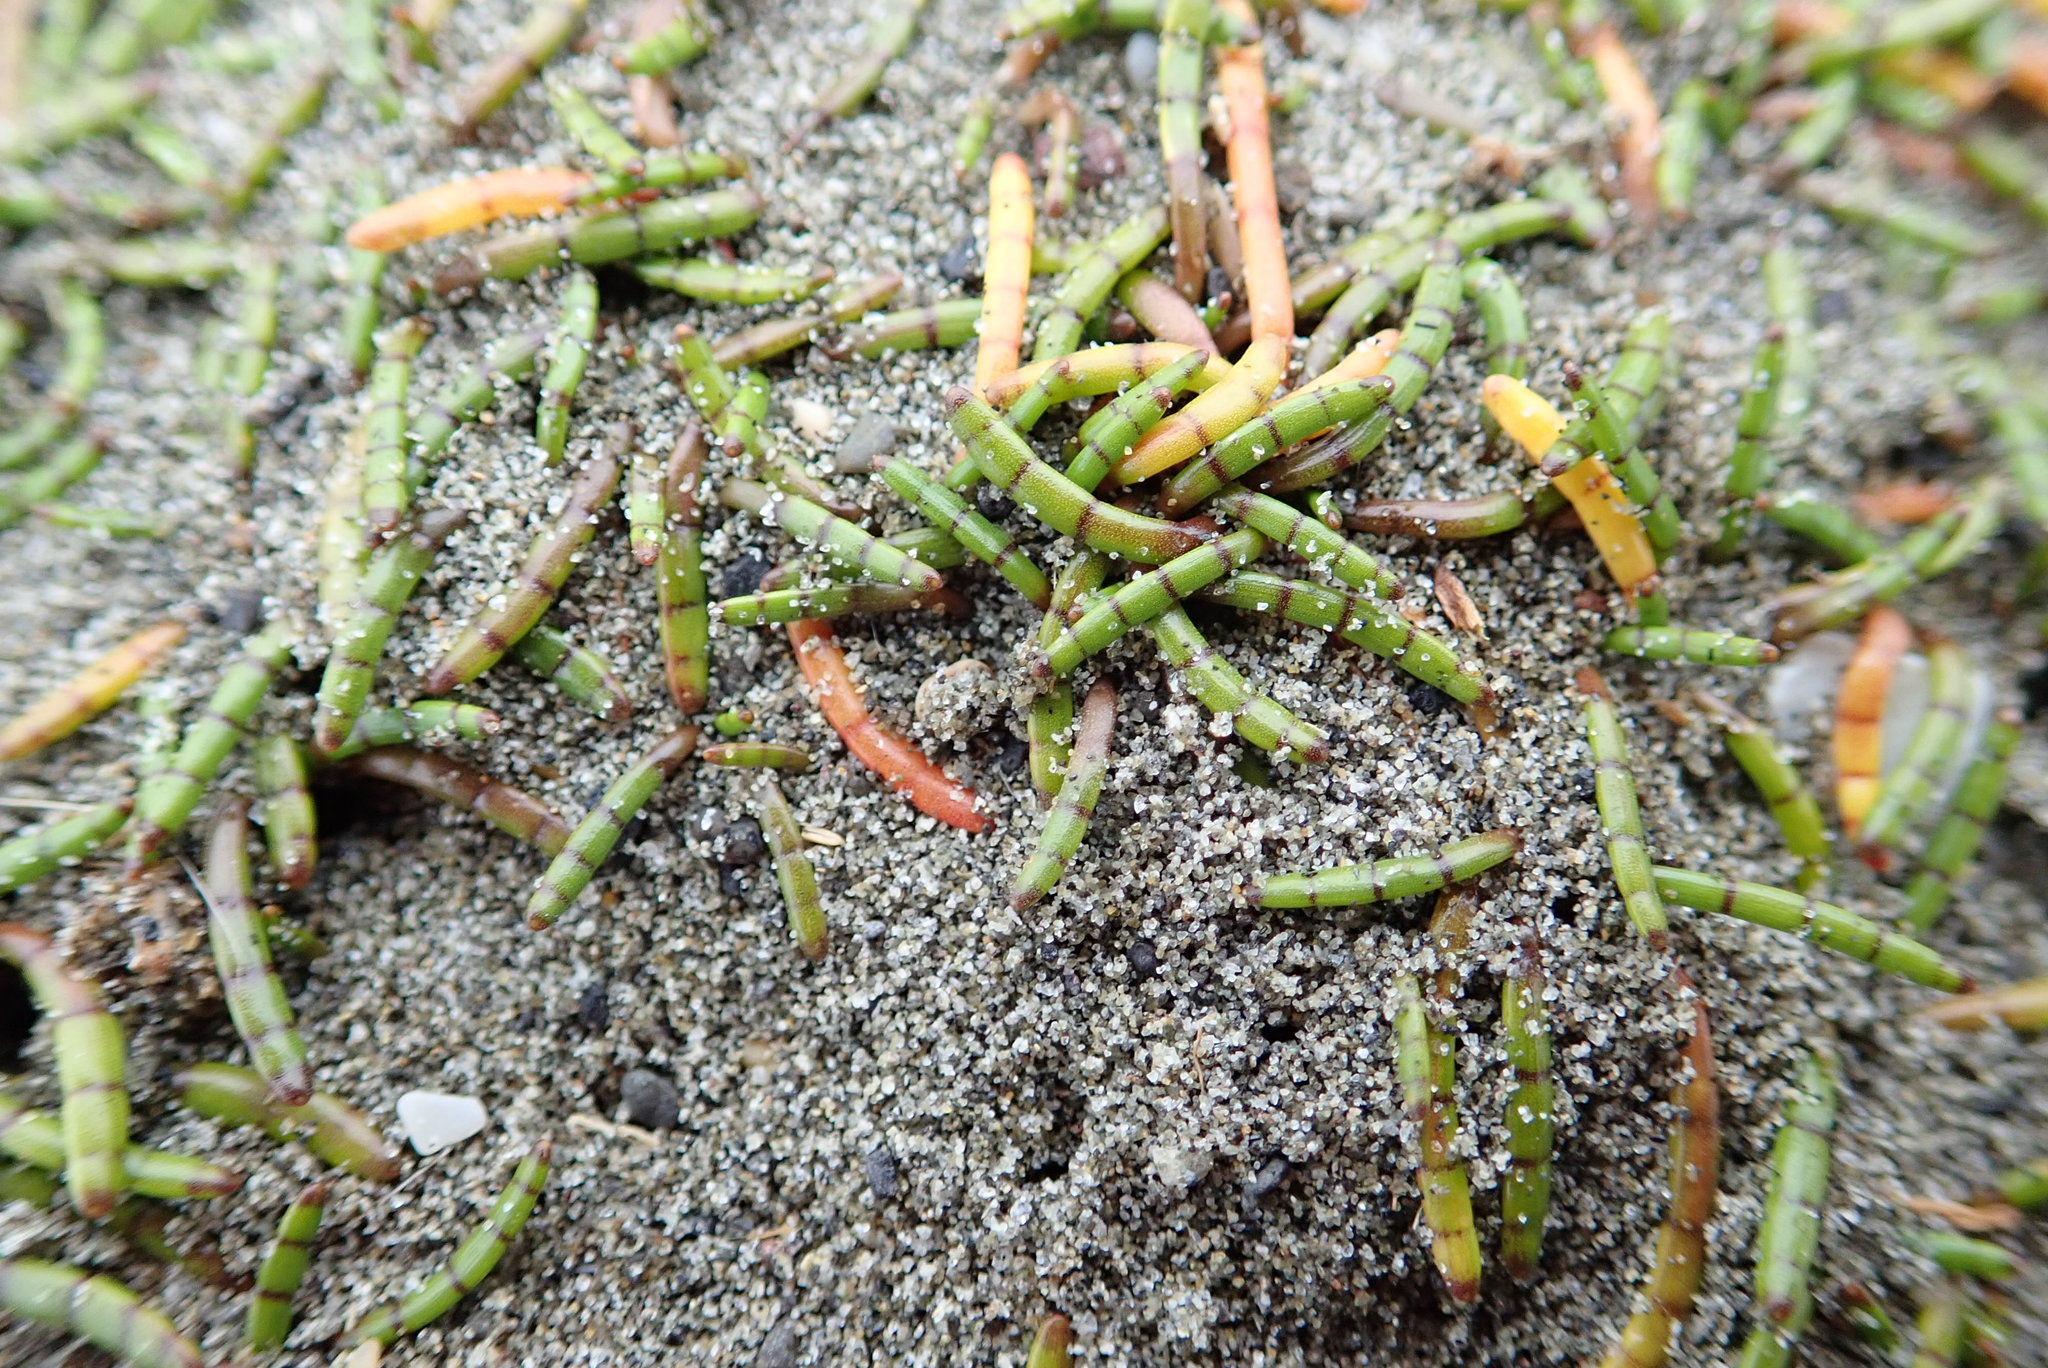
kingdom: Plantae
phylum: Tracheophyta
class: Magnoliopsida
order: Apiales
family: Apiaceae
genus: Lilaeopsis
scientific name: Lilaeopsis novae-zelandiae
